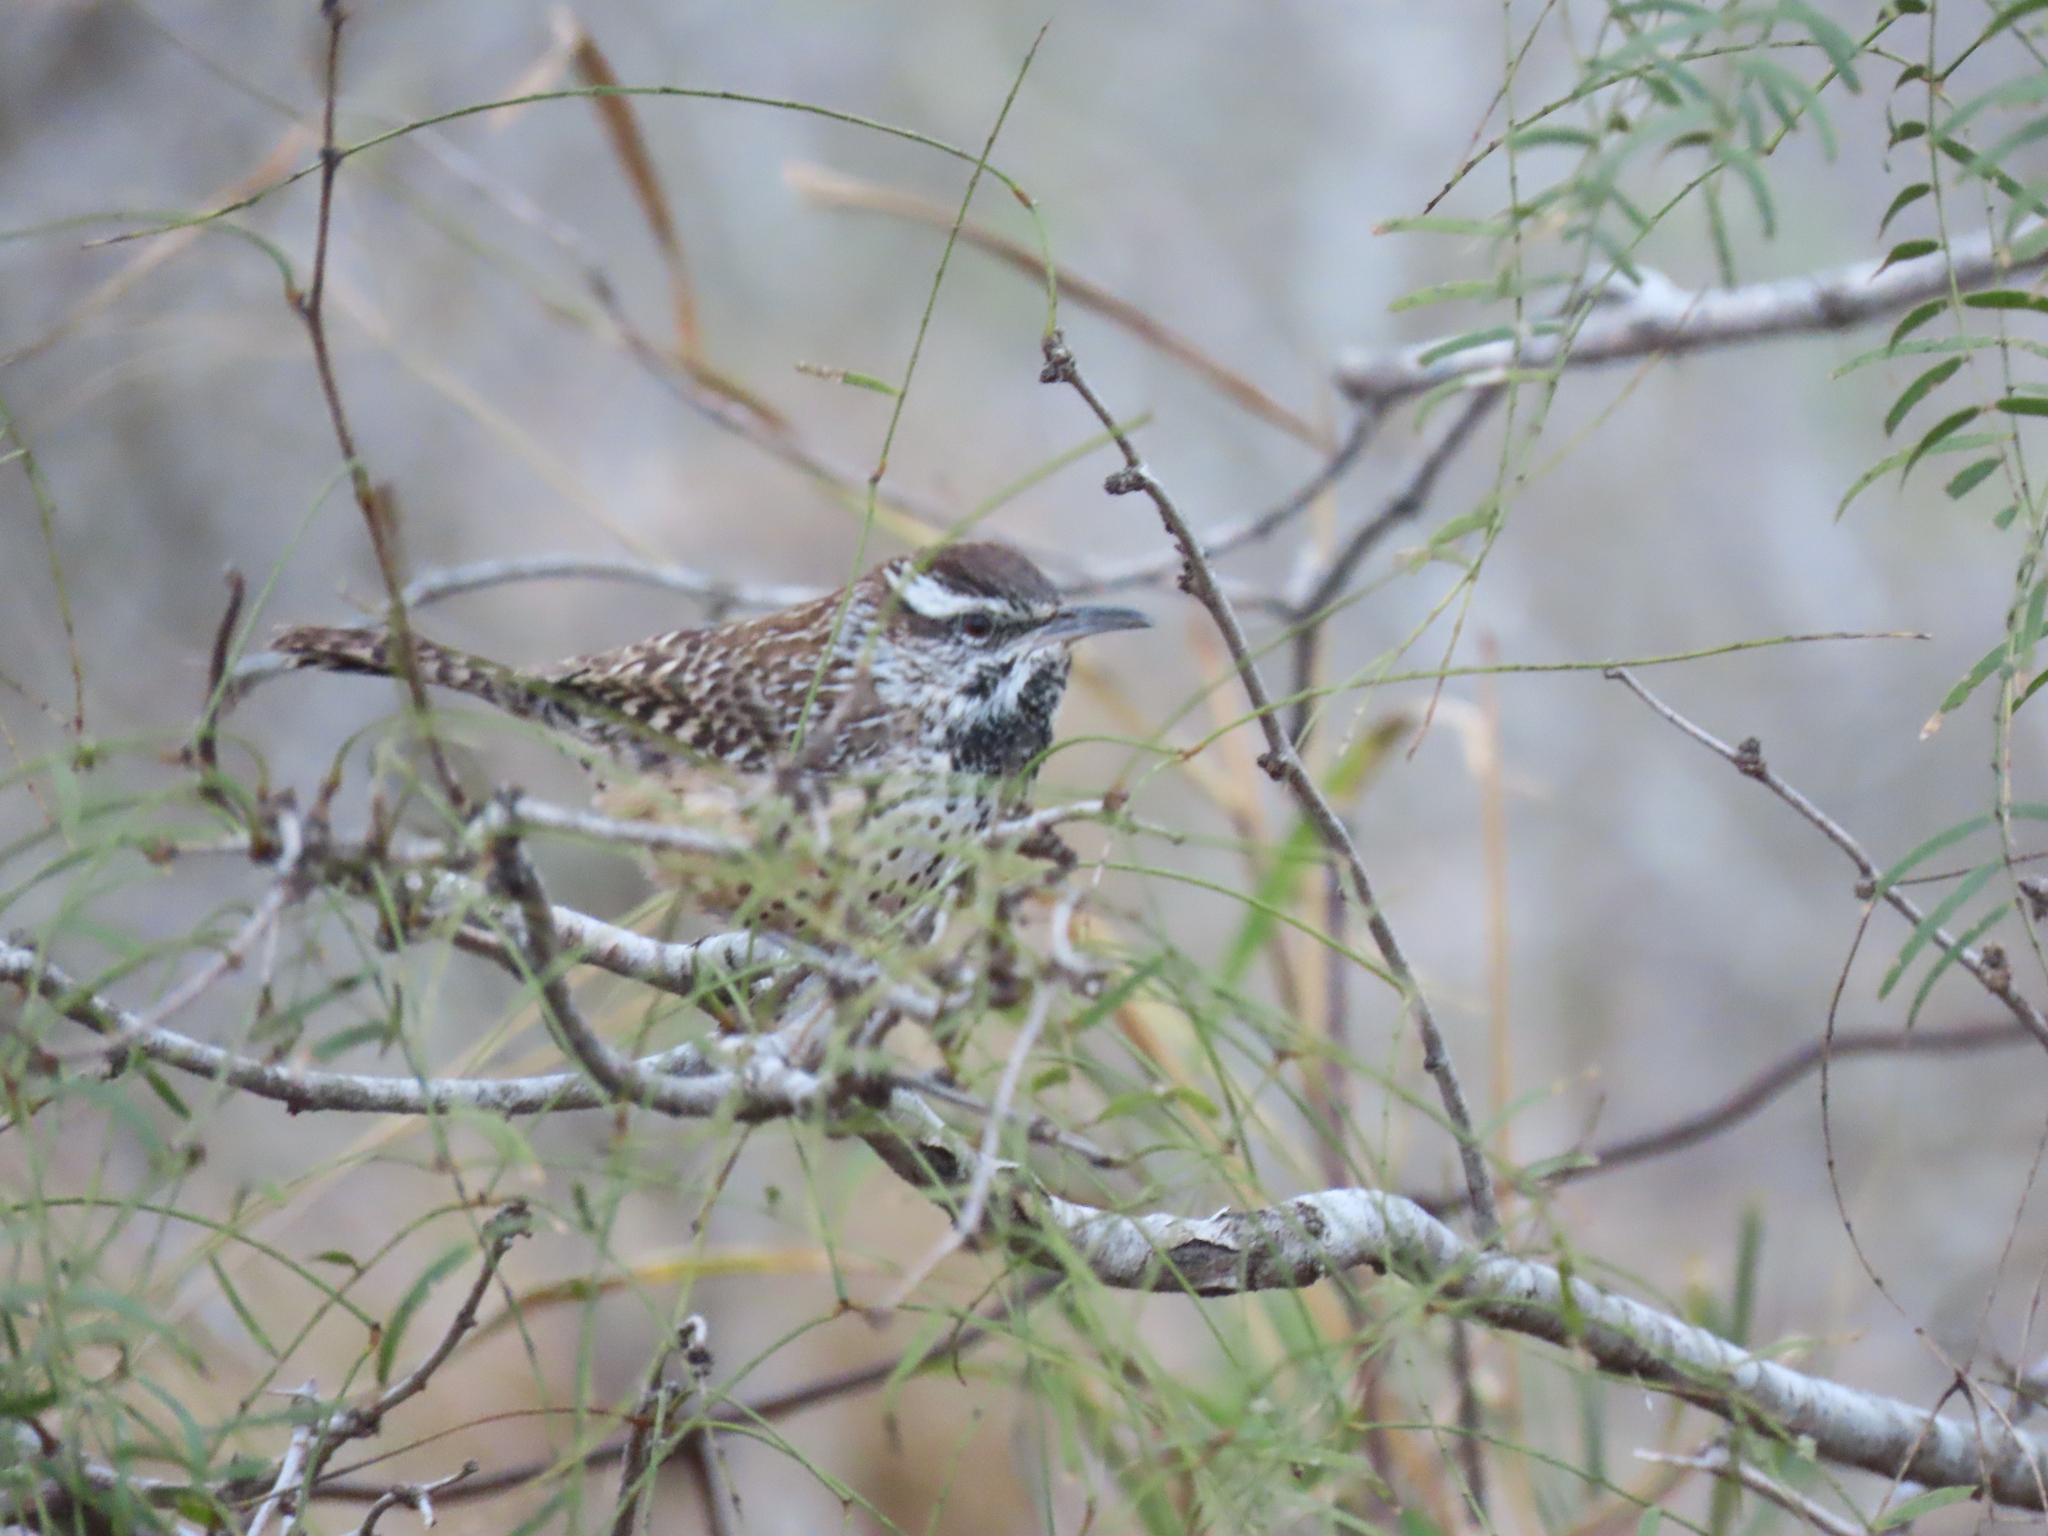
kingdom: Animalia
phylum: Chordata
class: Aves
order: Passeriformes
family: Troglodytidae
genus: Campylorhynchus
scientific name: Campylorhynchus brunneicapillus
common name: Cactus wren
